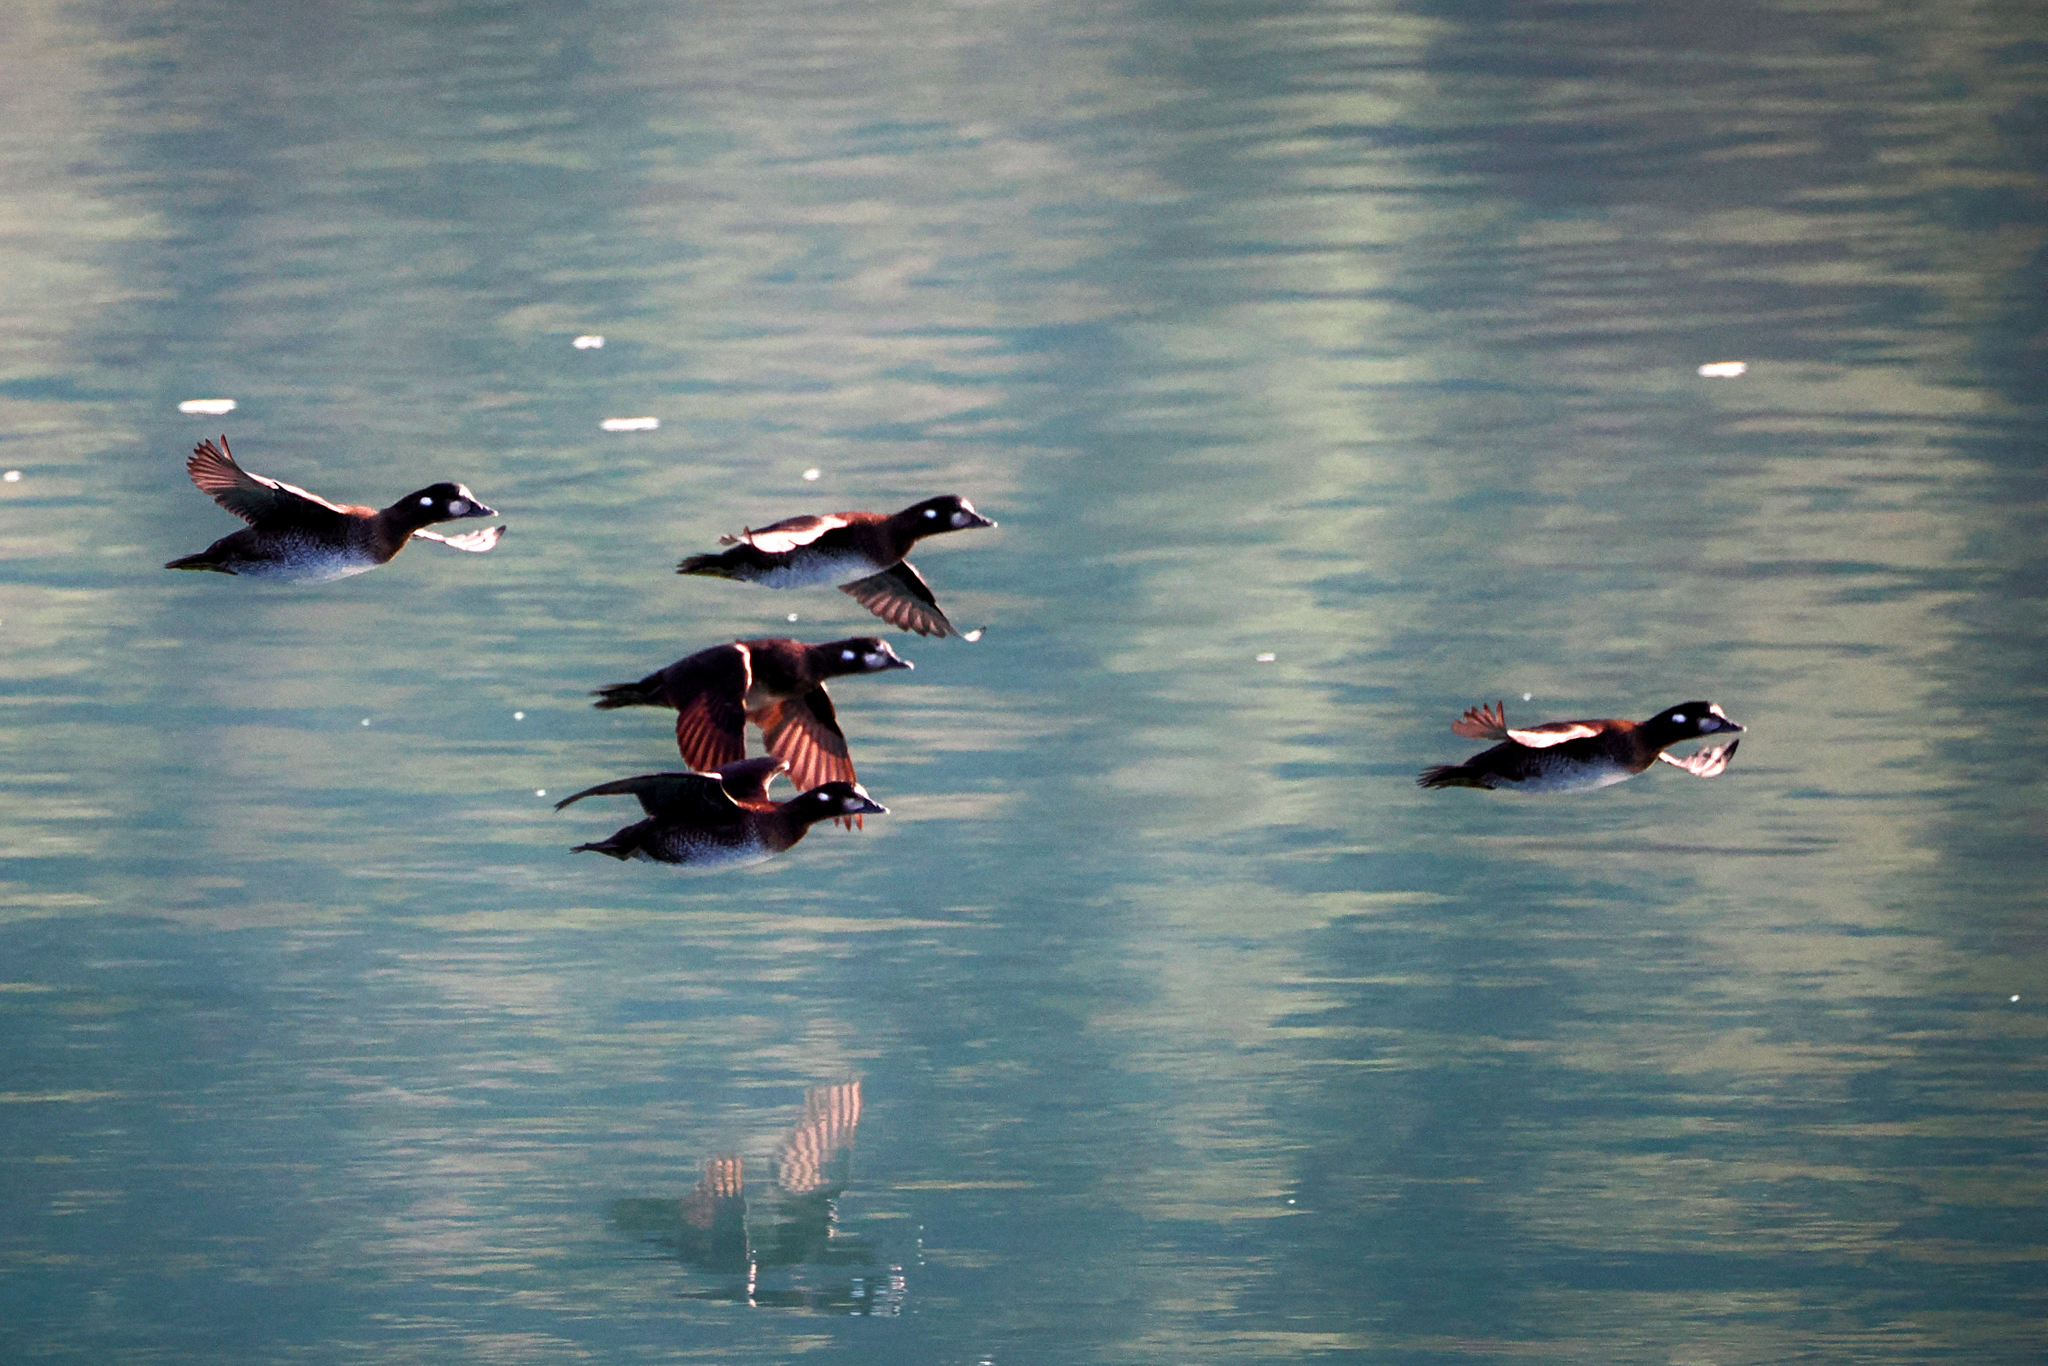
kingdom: Animalia
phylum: Chordata
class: Aves
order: Anseriformes
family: Anatidae
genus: Histrionicus
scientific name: Histrionicus histrionicus
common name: Harlequin duck
